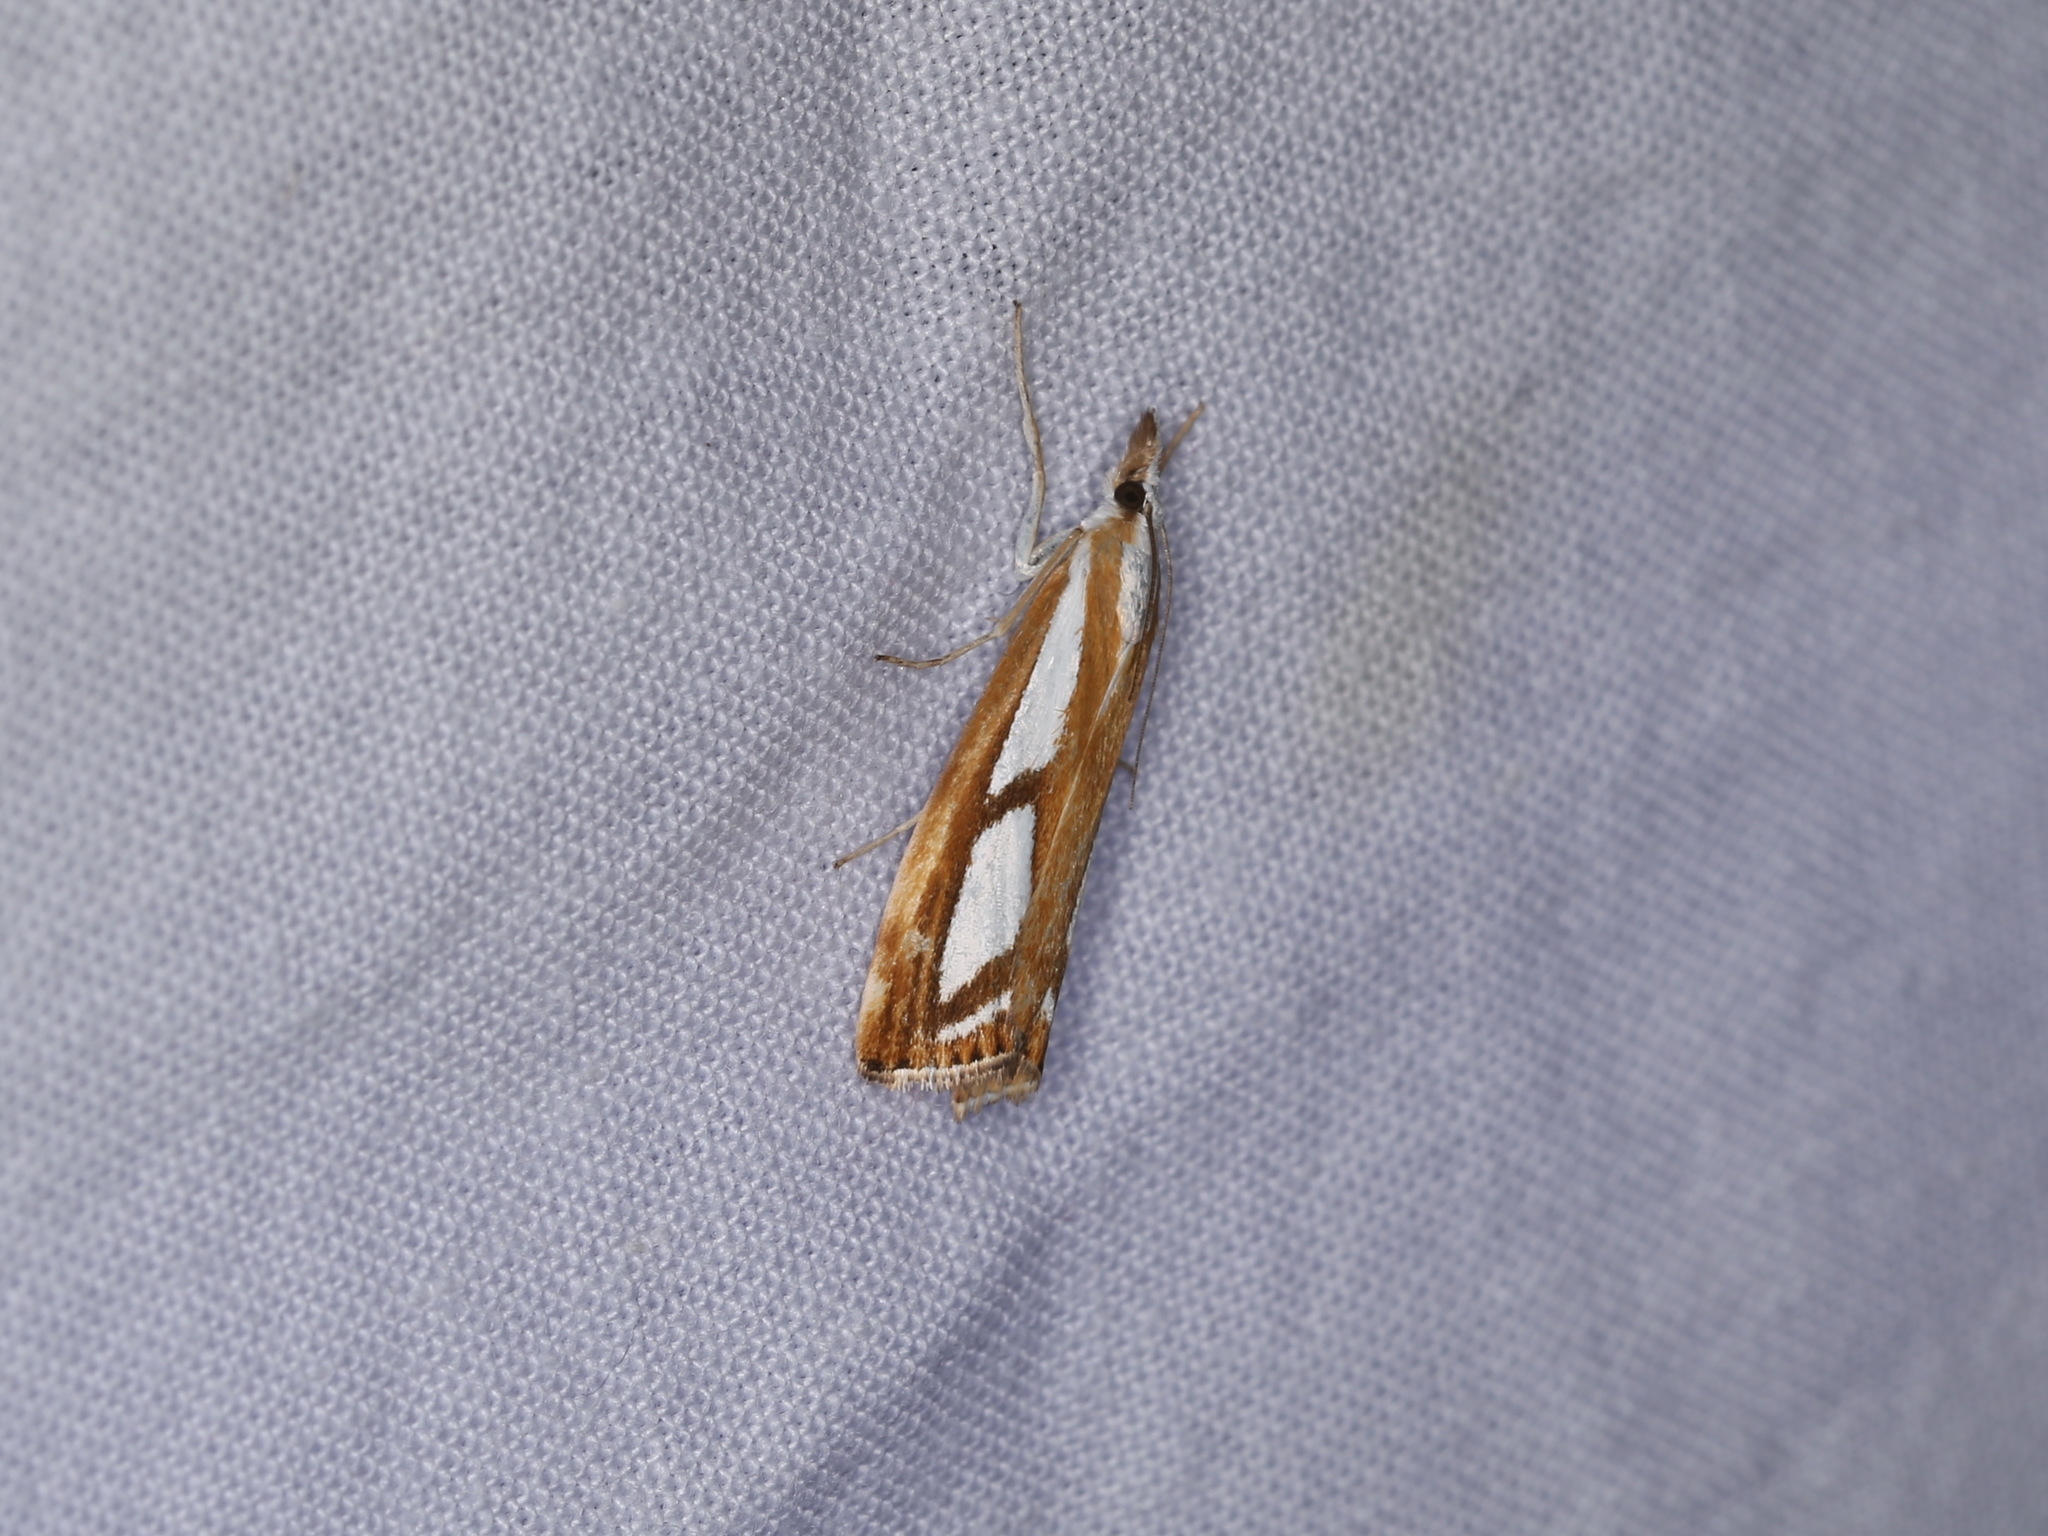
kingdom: Animalia
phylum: Arthropoda
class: Insecta
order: Lepidoptera
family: Crambidae
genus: Catoptria
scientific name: Catoptria
